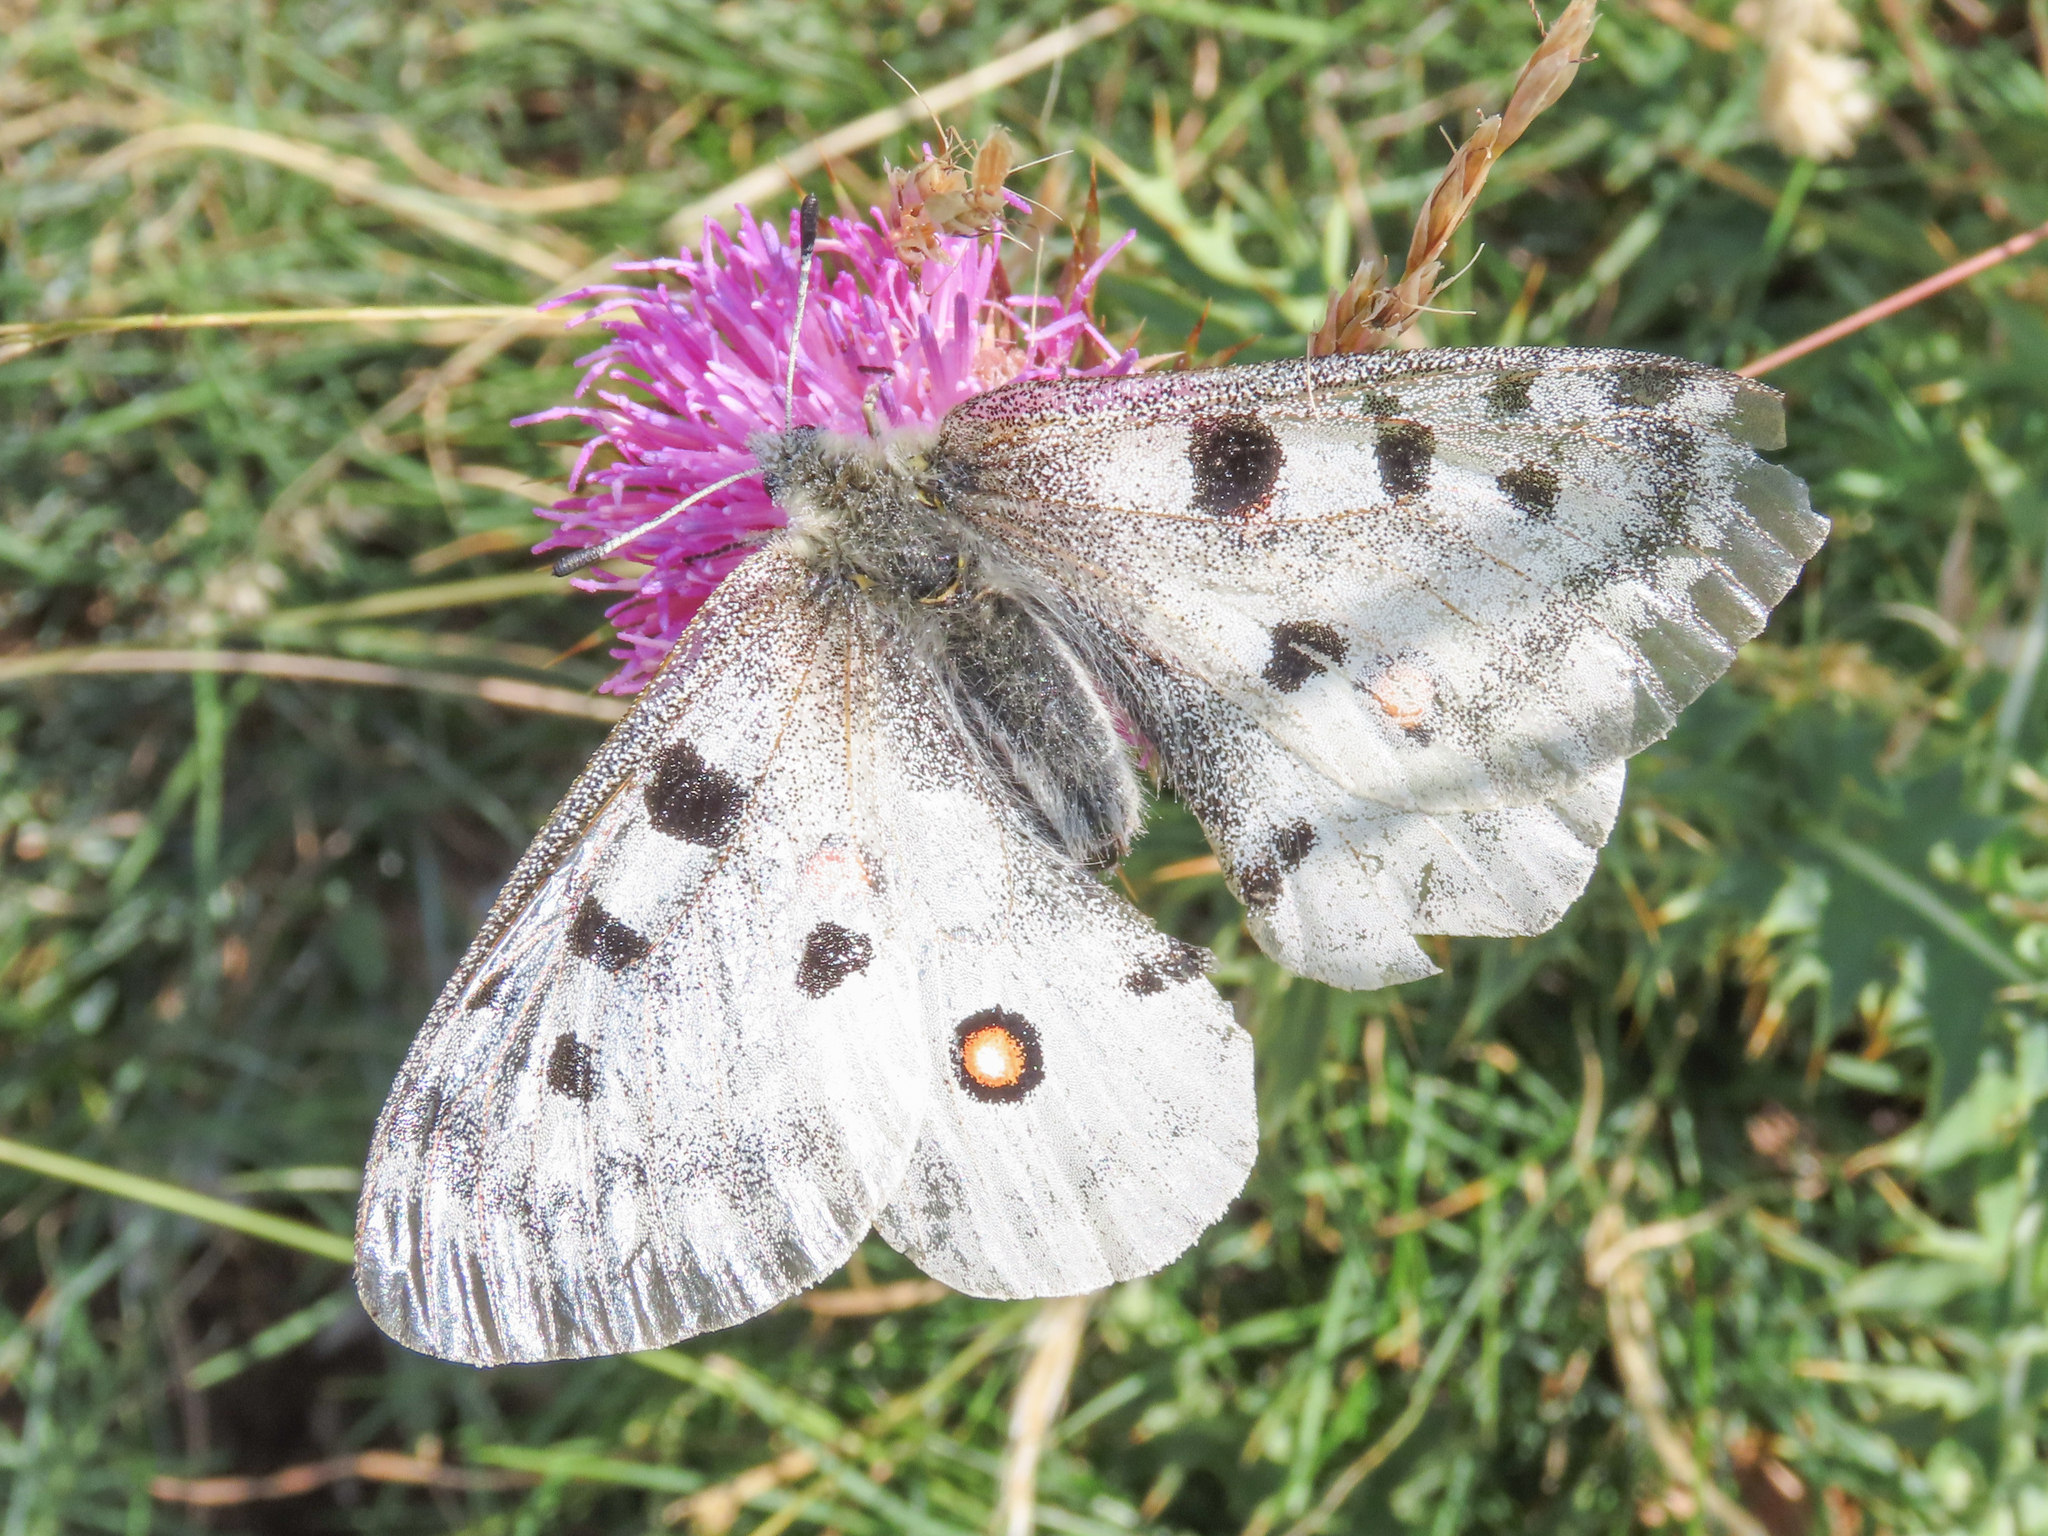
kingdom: Animalia
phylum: Arthropoda
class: Insecta
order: Lepidoptera
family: Papilionidae
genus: Parnassius
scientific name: Parnassius apollo
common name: Apollo
